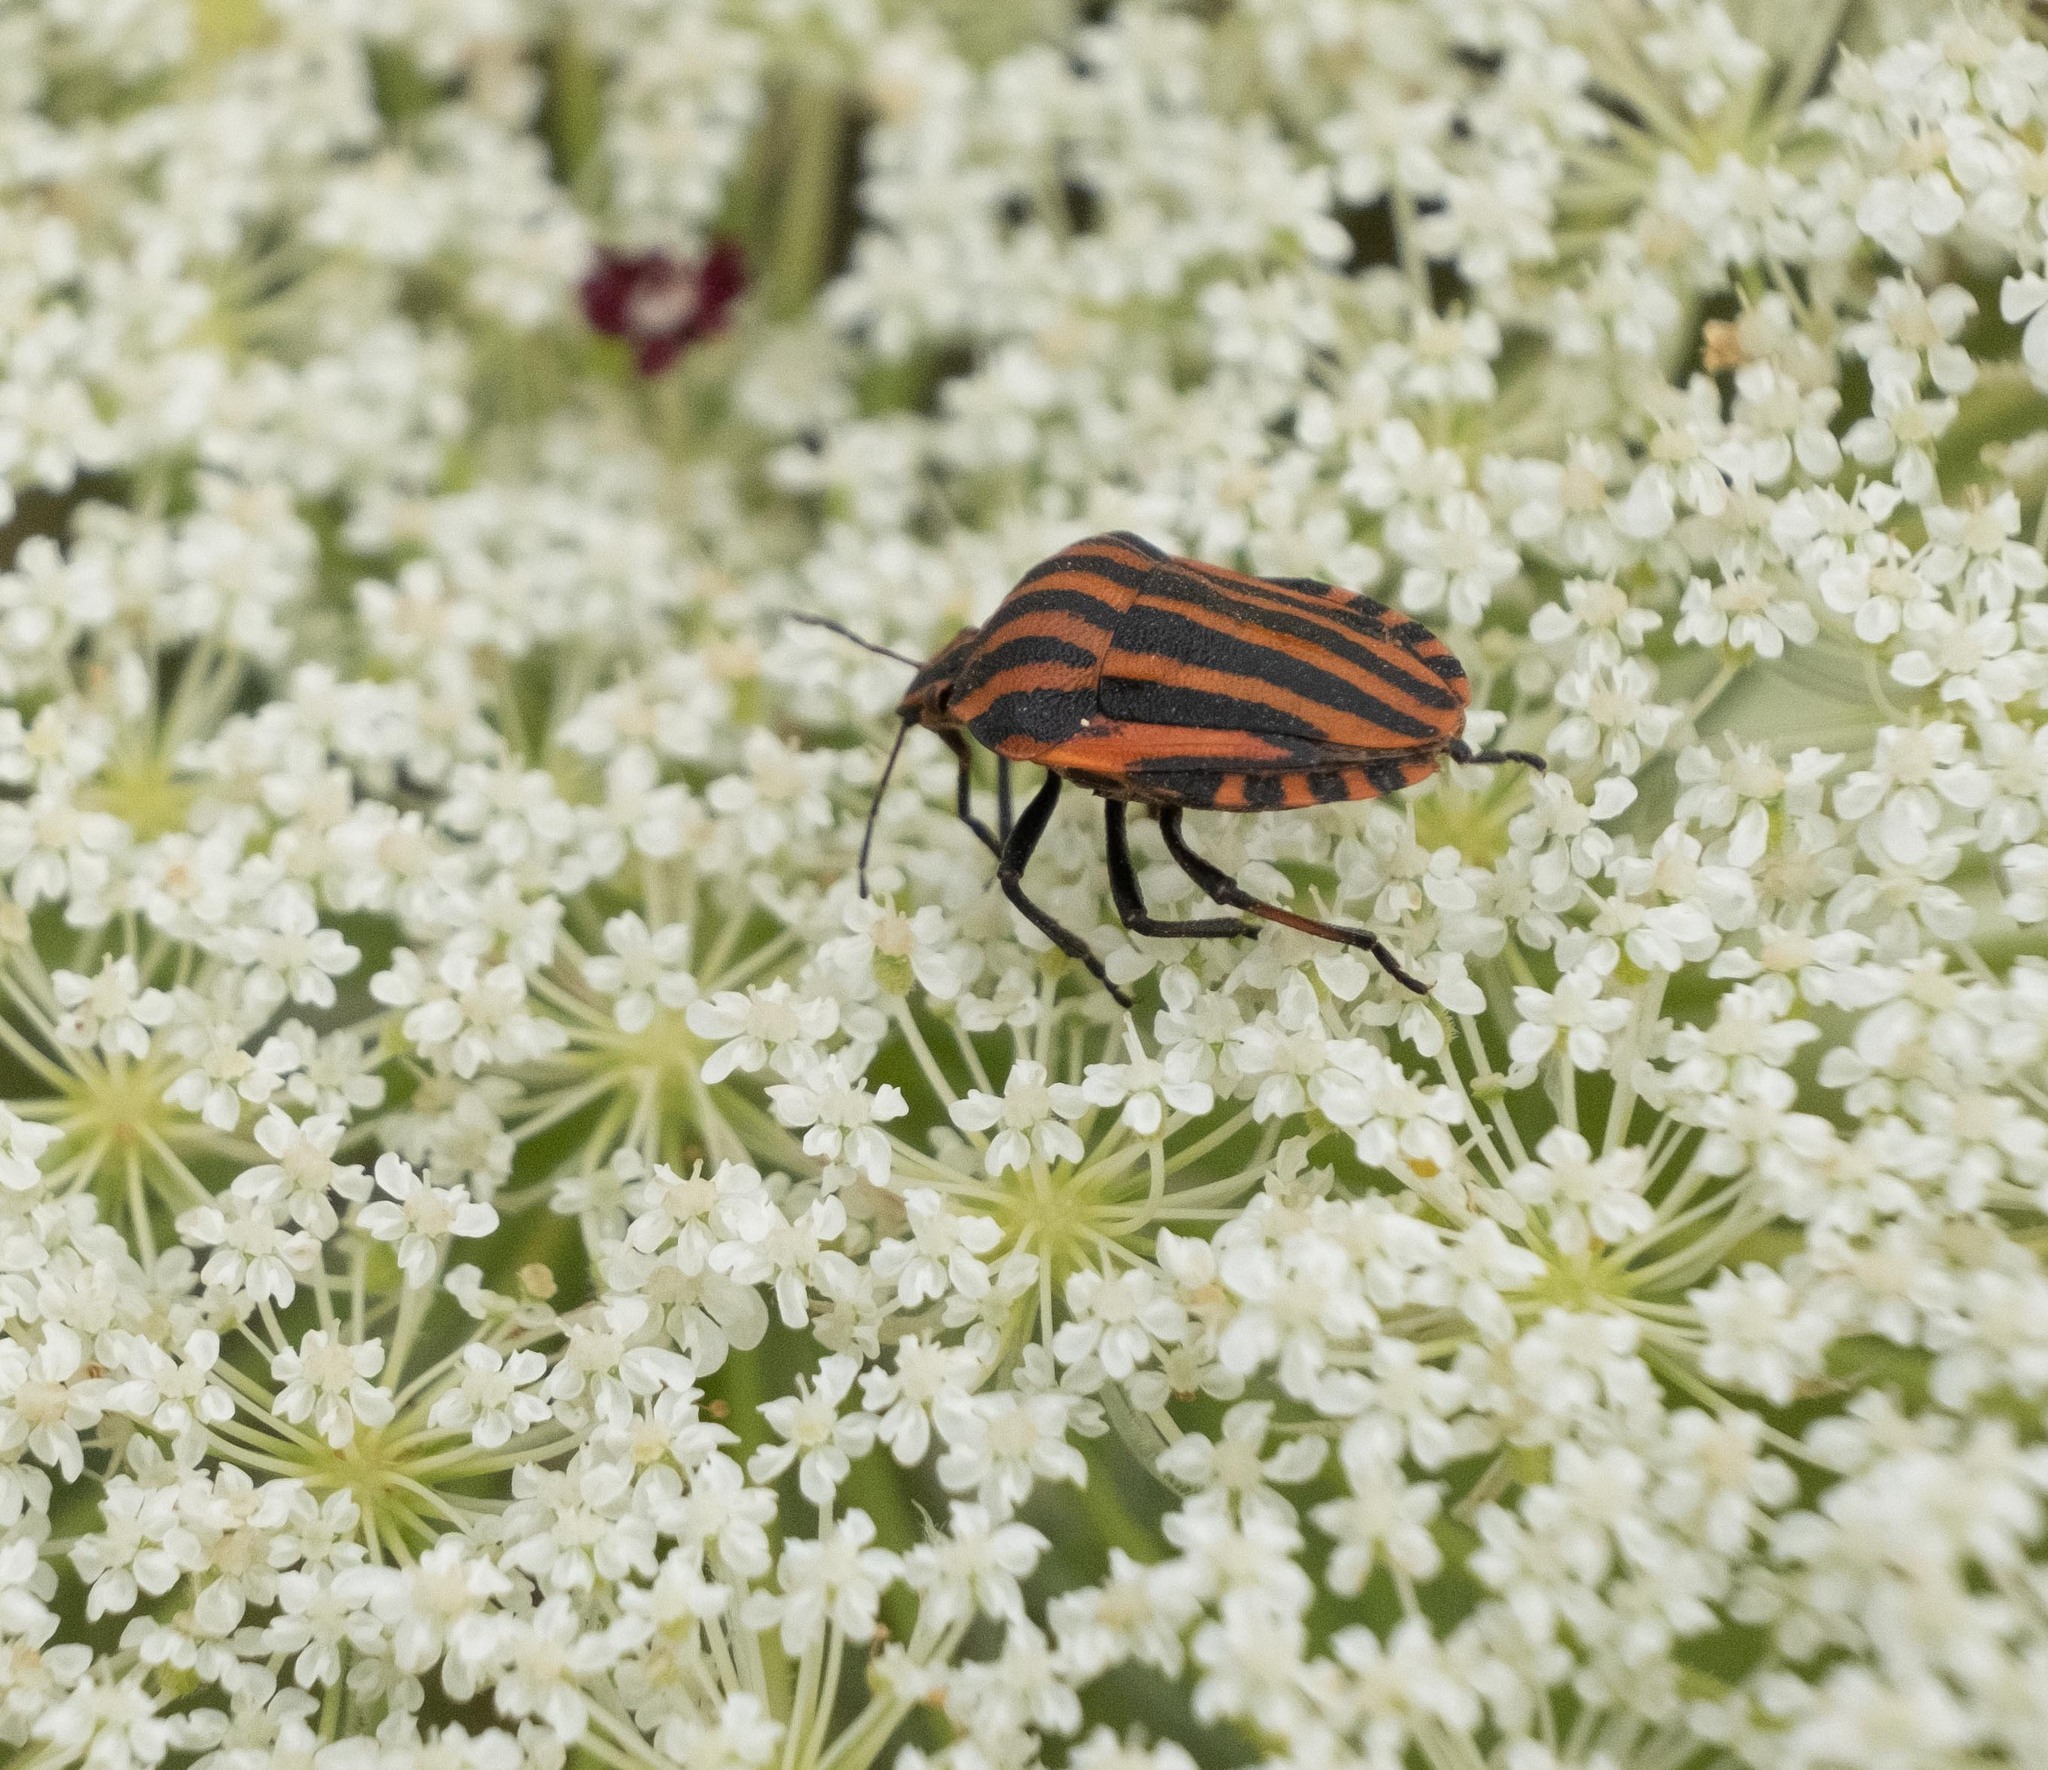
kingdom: Animalia
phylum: Arthropoda
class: Insecta
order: Hemiptera
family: Pentatomidae
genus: Graphosoma
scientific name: Graphosoma italicum
